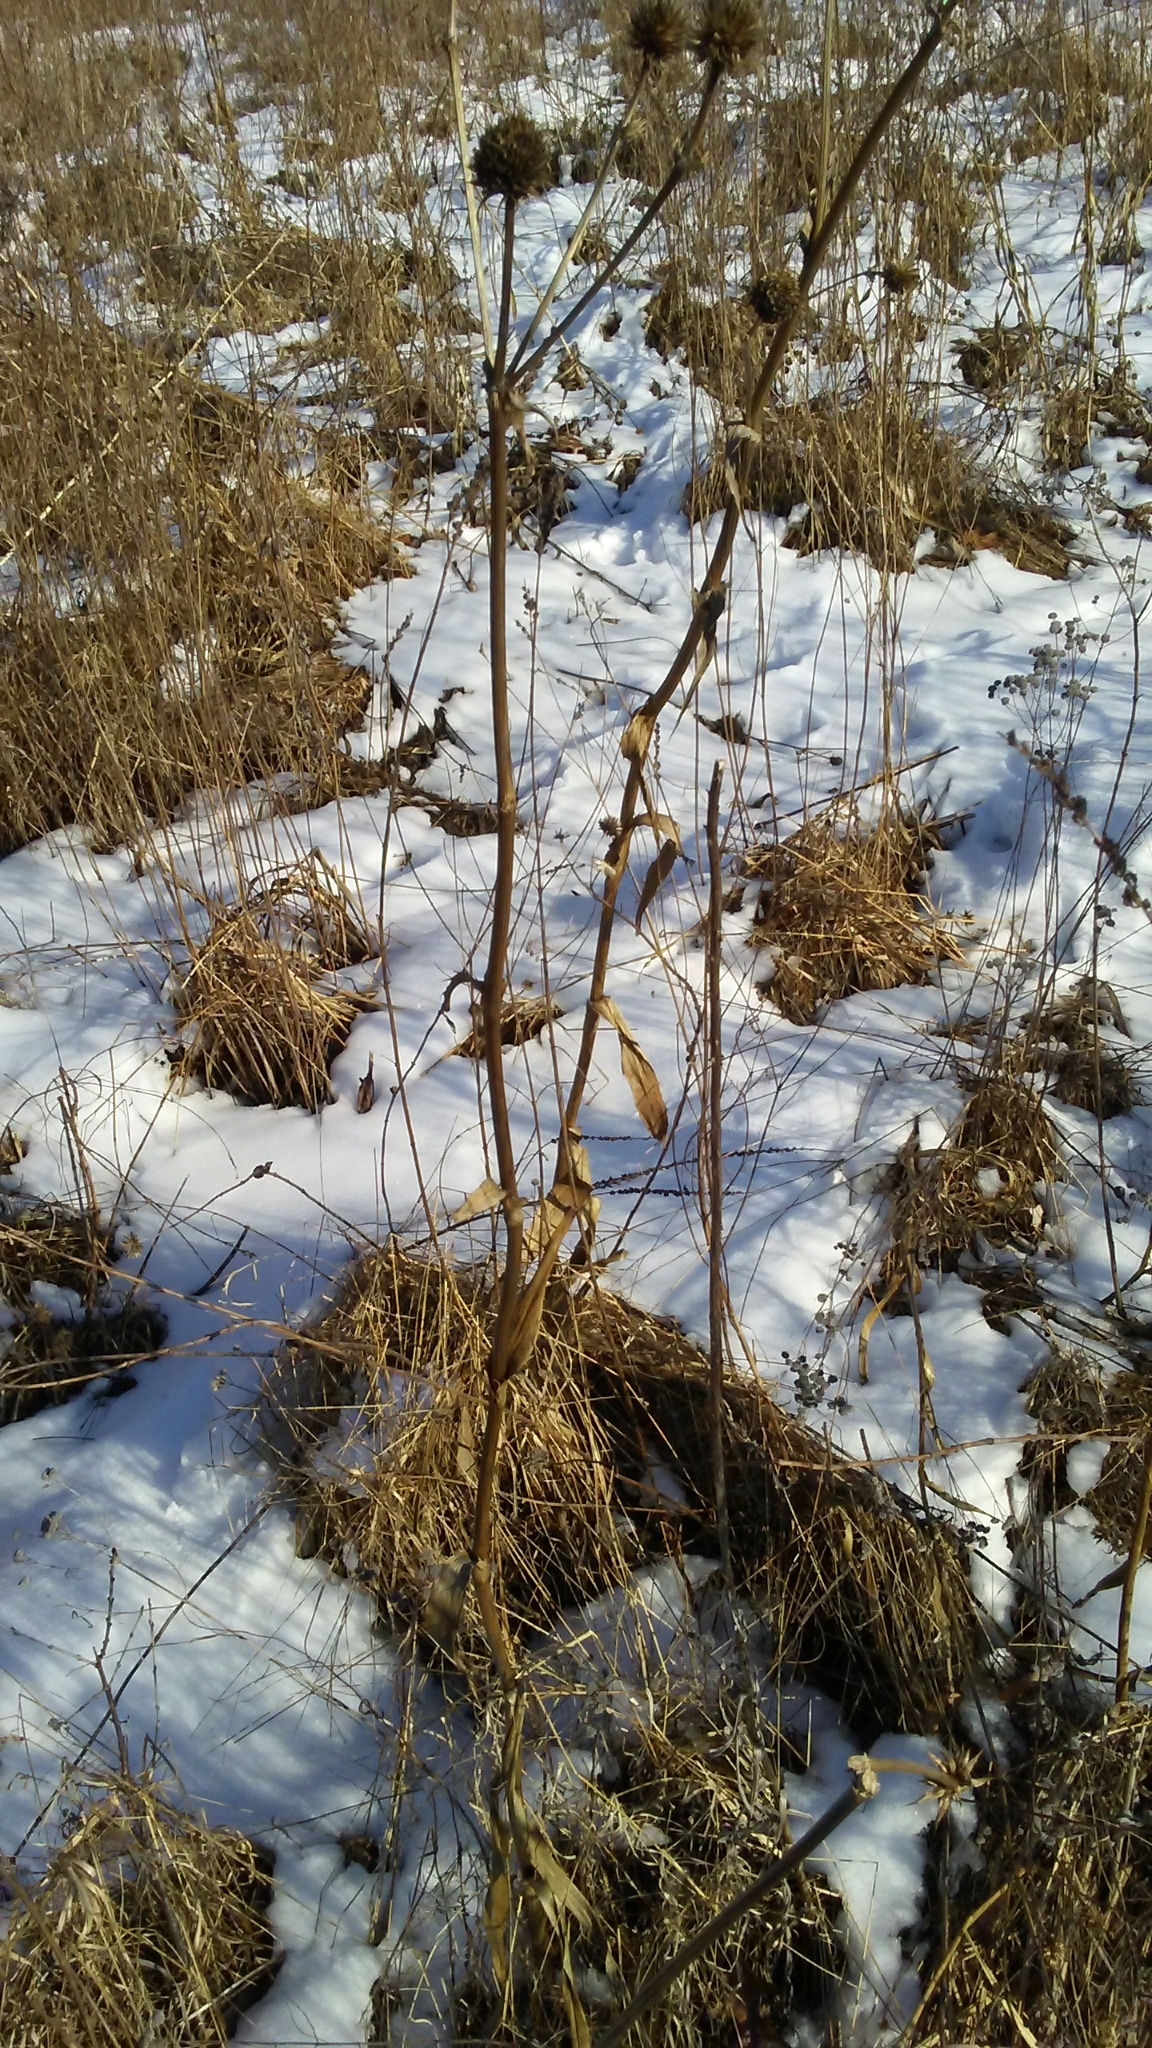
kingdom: Plantae
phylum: Tracheophyta
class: Magnoliopsida
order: Apiales
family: Apiaceae
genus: Eryngium
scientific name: Eryngium yuccifolium
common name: Button eryngo
